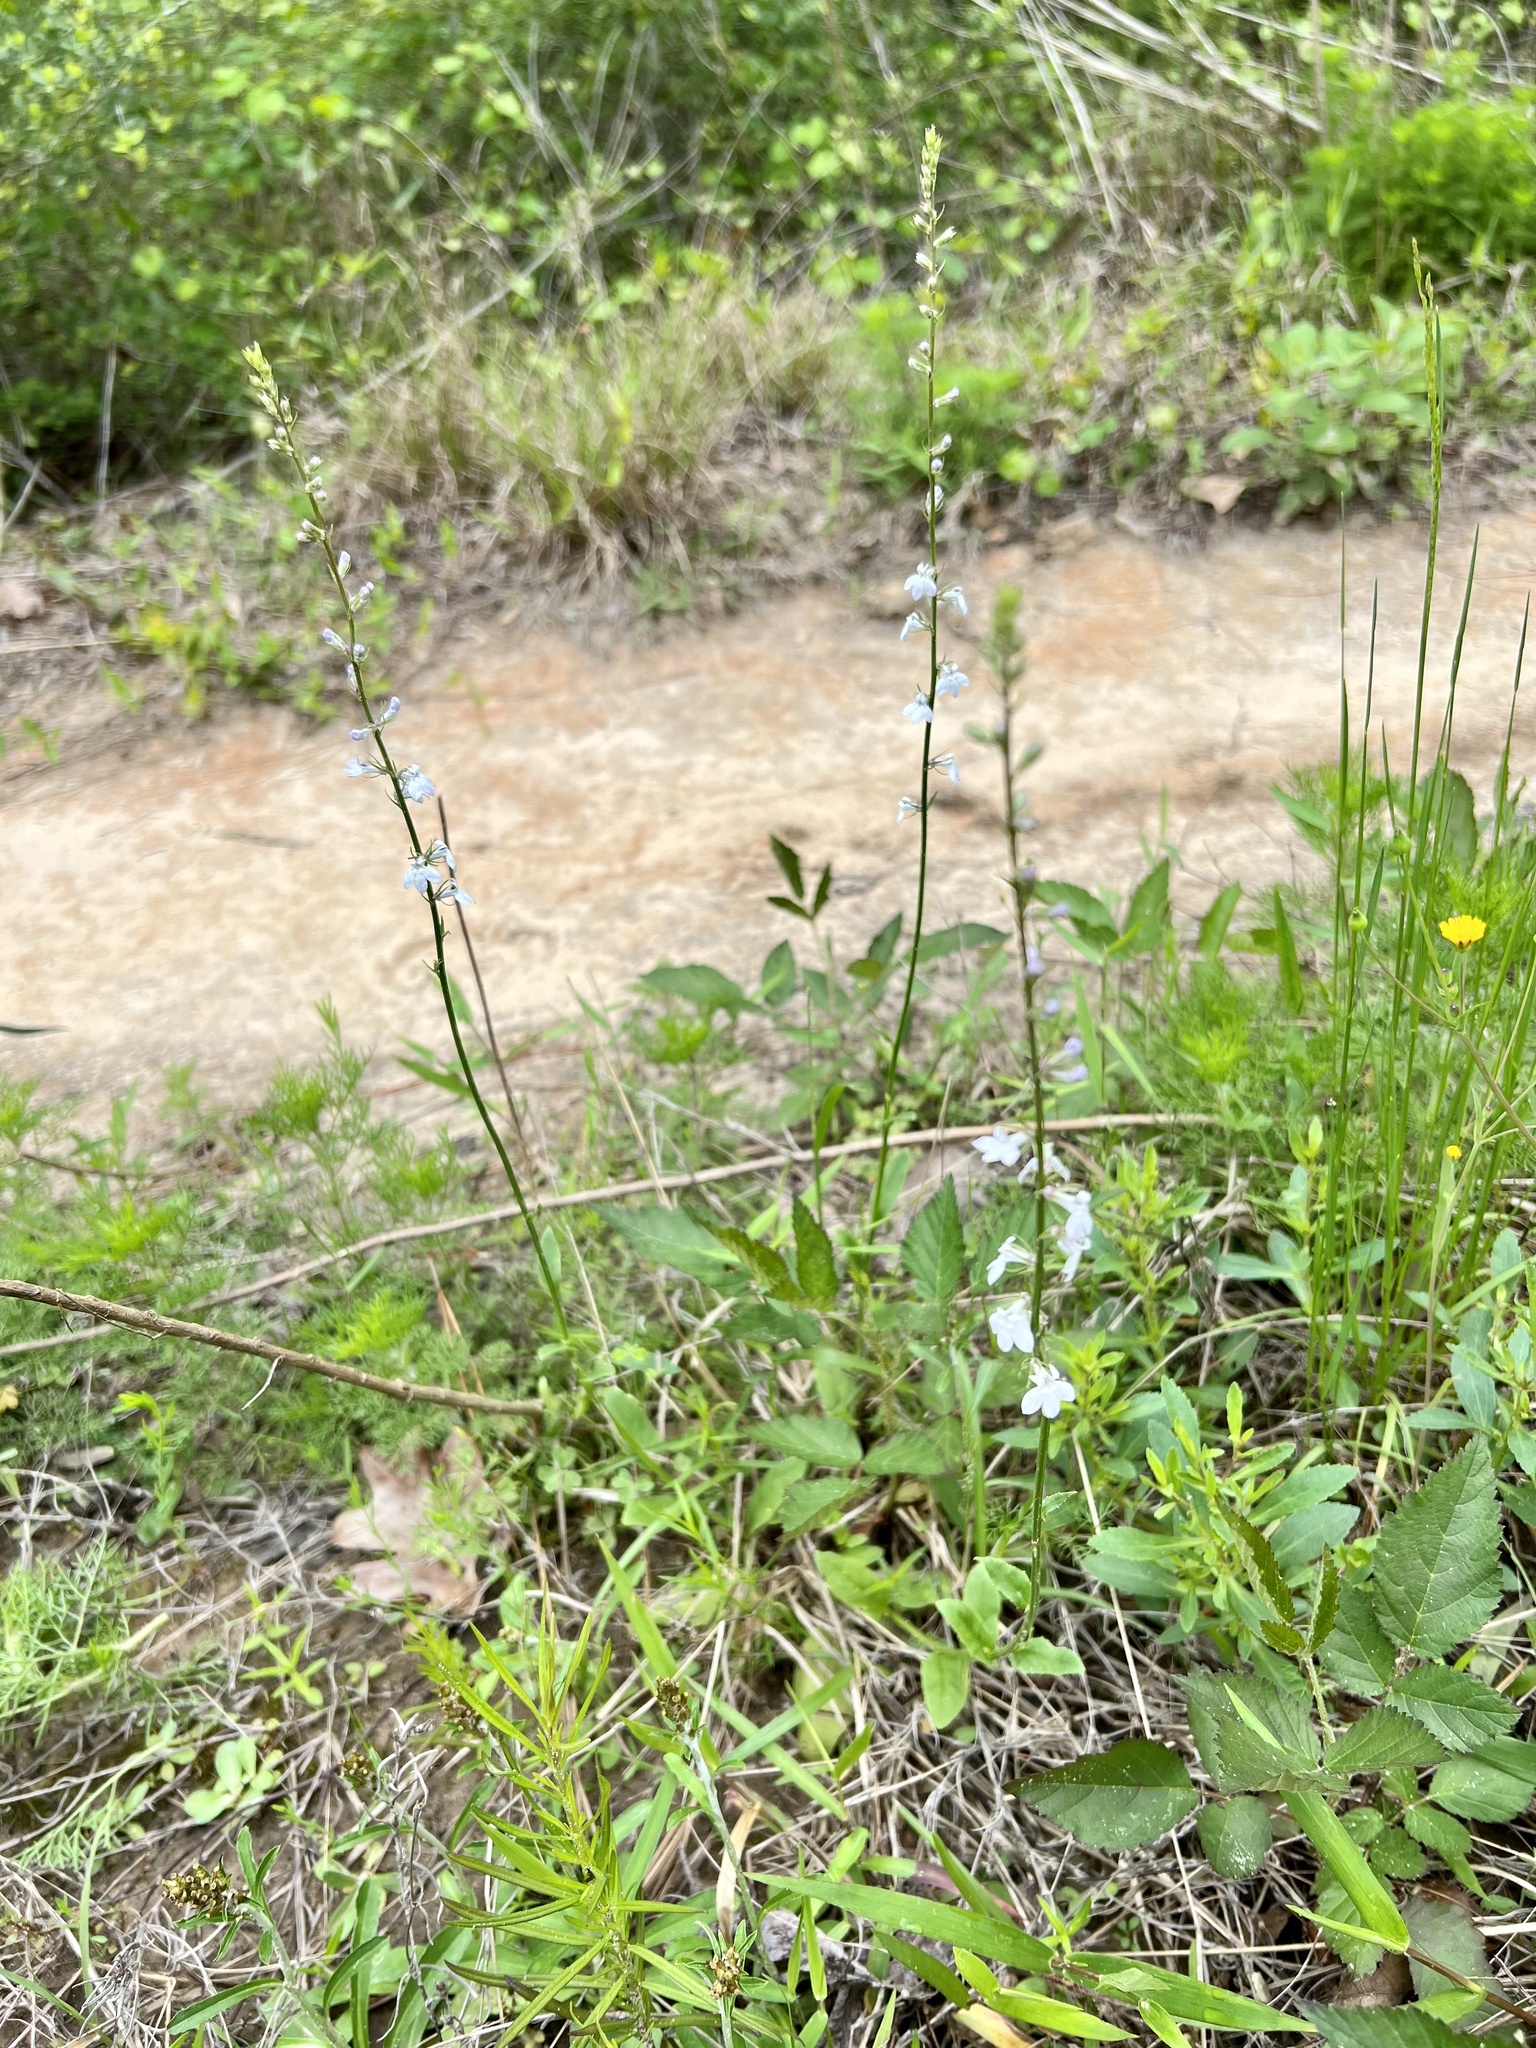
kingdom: Plantae
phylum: Tracheophyta
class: Magnoliopsida
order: Asterales
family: Campanulaceae
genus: Lobelia
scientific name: Lobelia appendiculata
